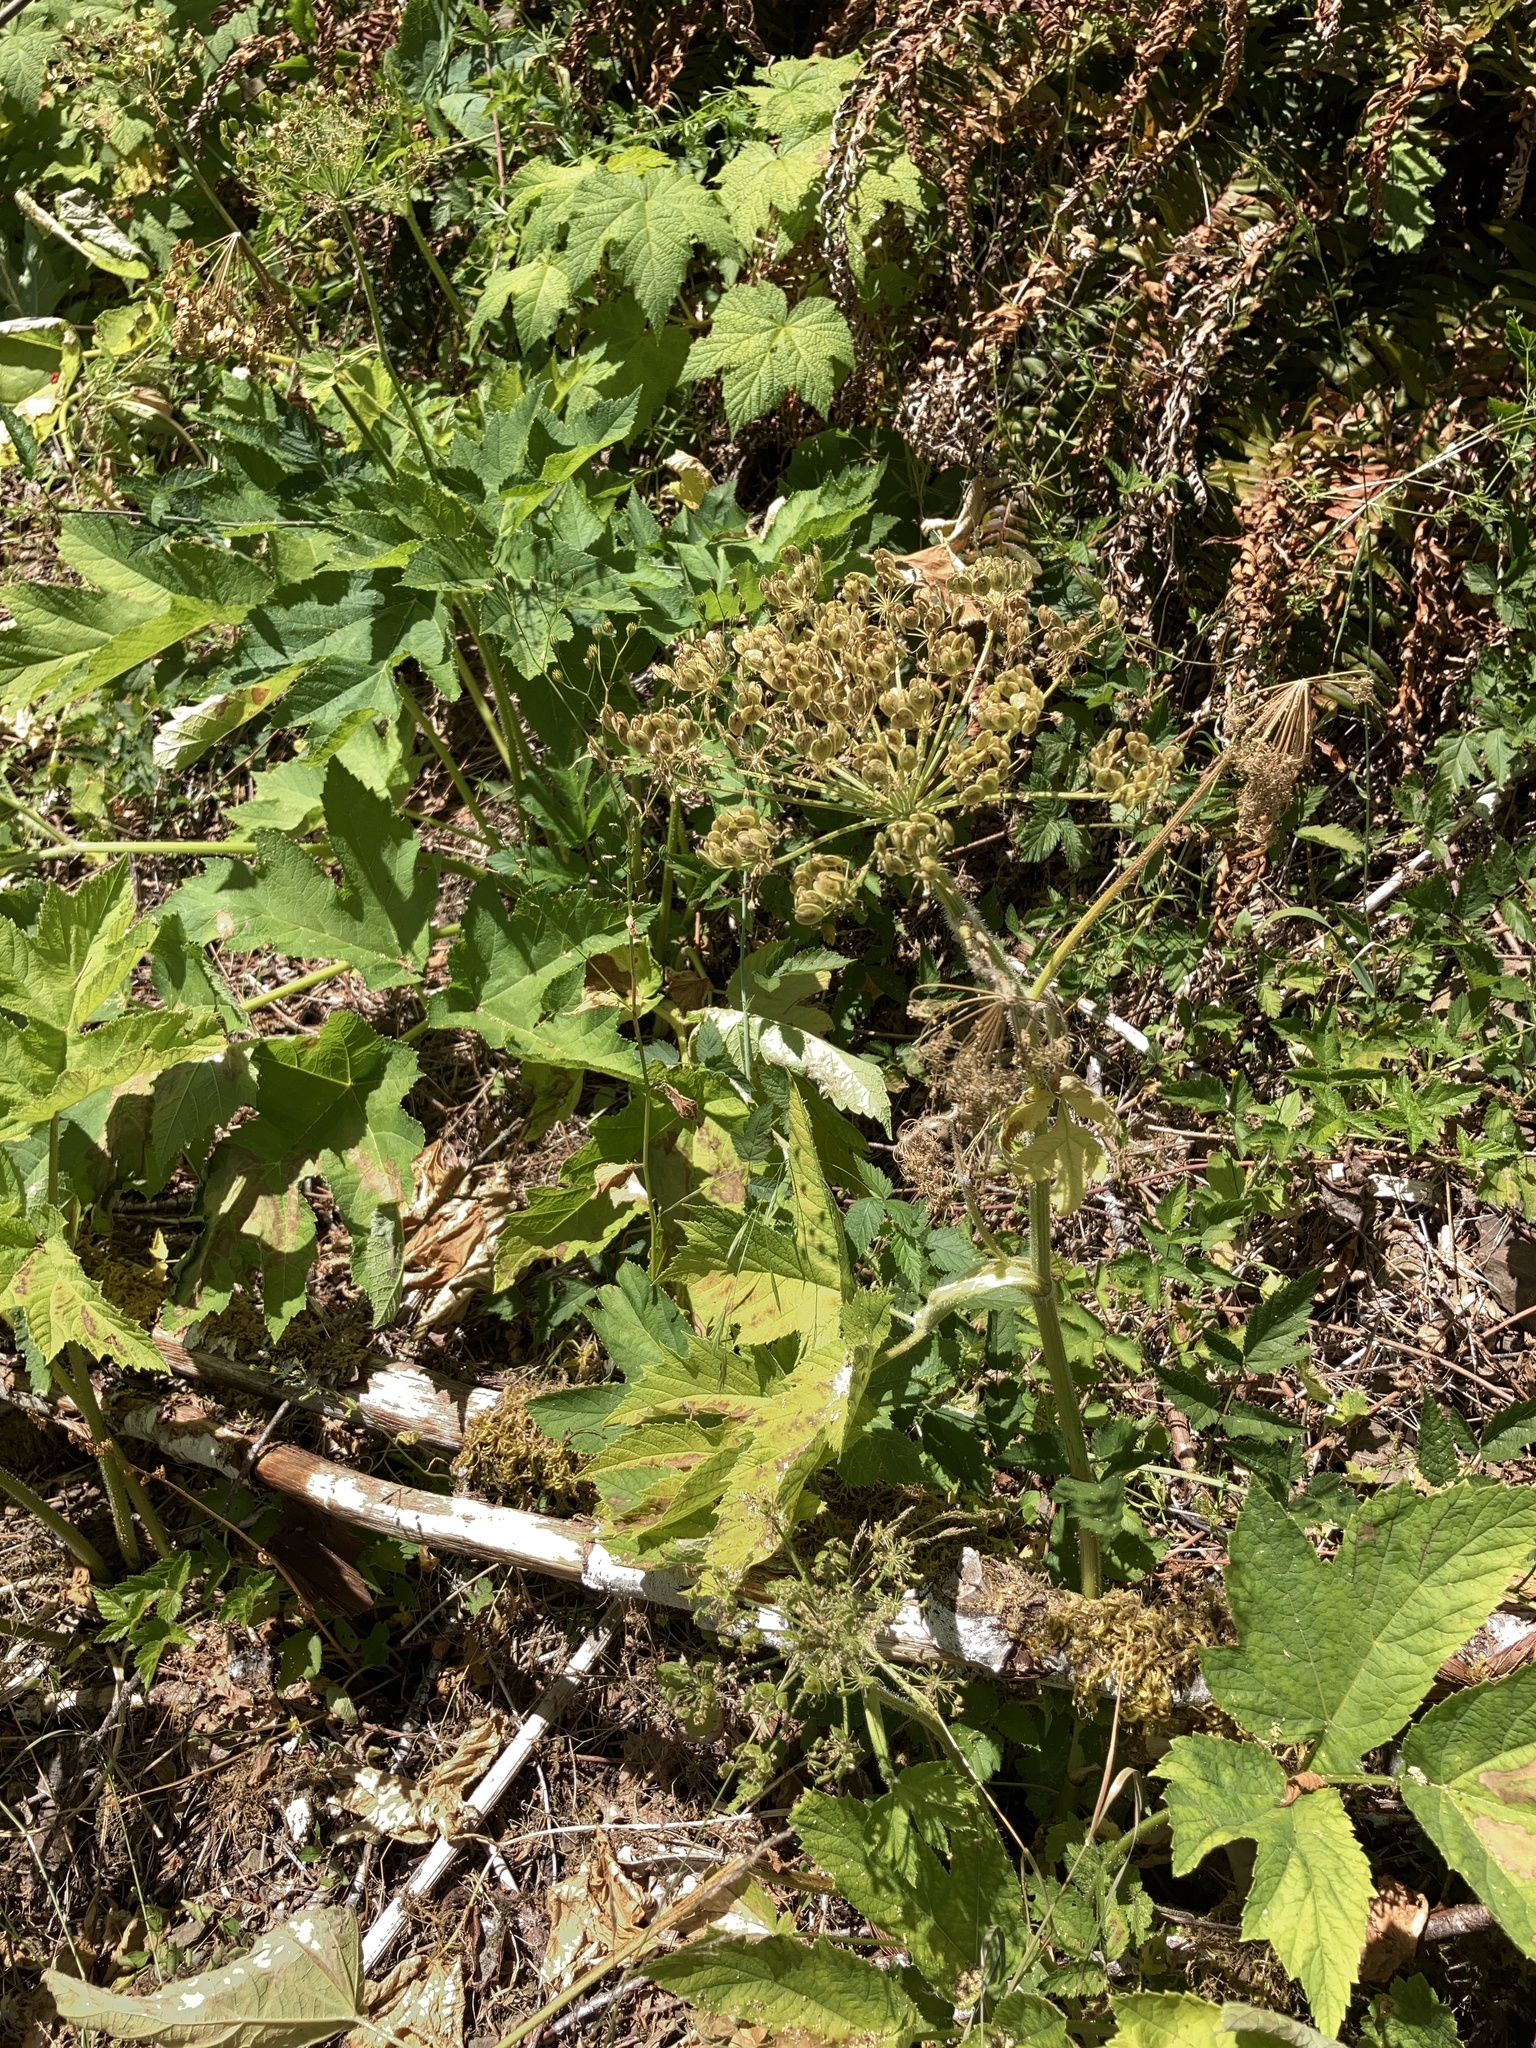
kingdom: Plantae
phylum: Tracheophyta
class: Magnoliopsida
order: Apiales
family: Apiaceae
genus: Heracleum
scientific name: Heracleum maximum
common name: American cow parsnip
